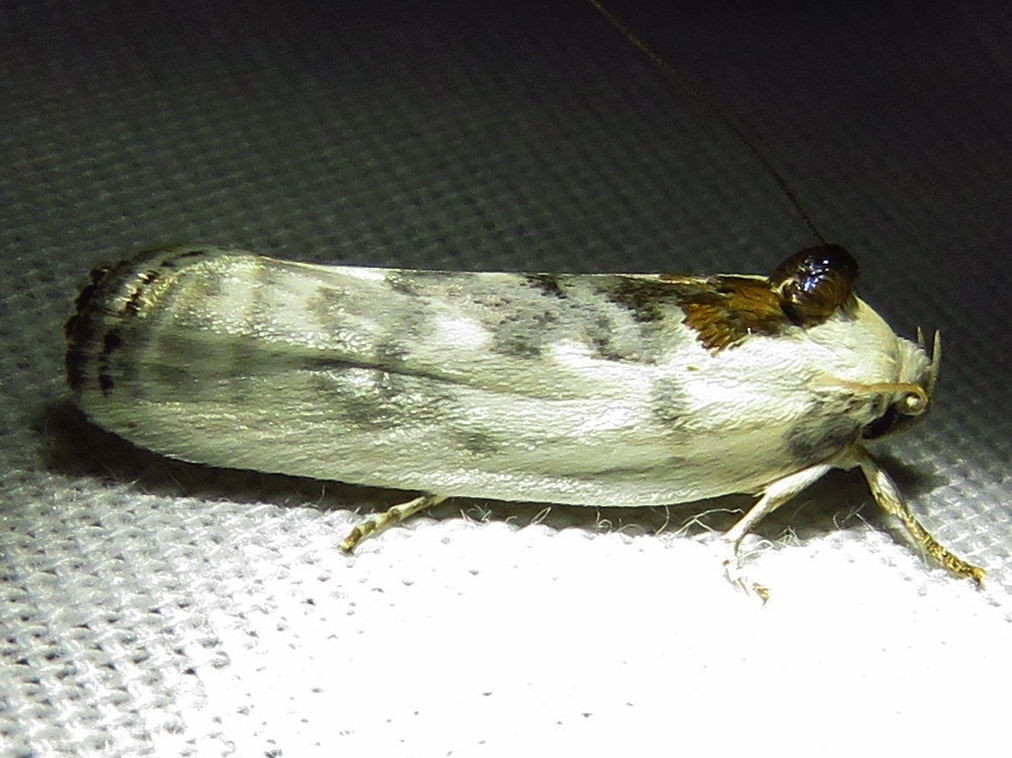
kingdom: Animalia
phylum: Arthropoda
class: Insecta
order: Lepidoptera
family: Depressariidae
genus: Antaeotricha
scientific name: Antaeotricha leucillana
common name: Pale gray bird-dropping moth
